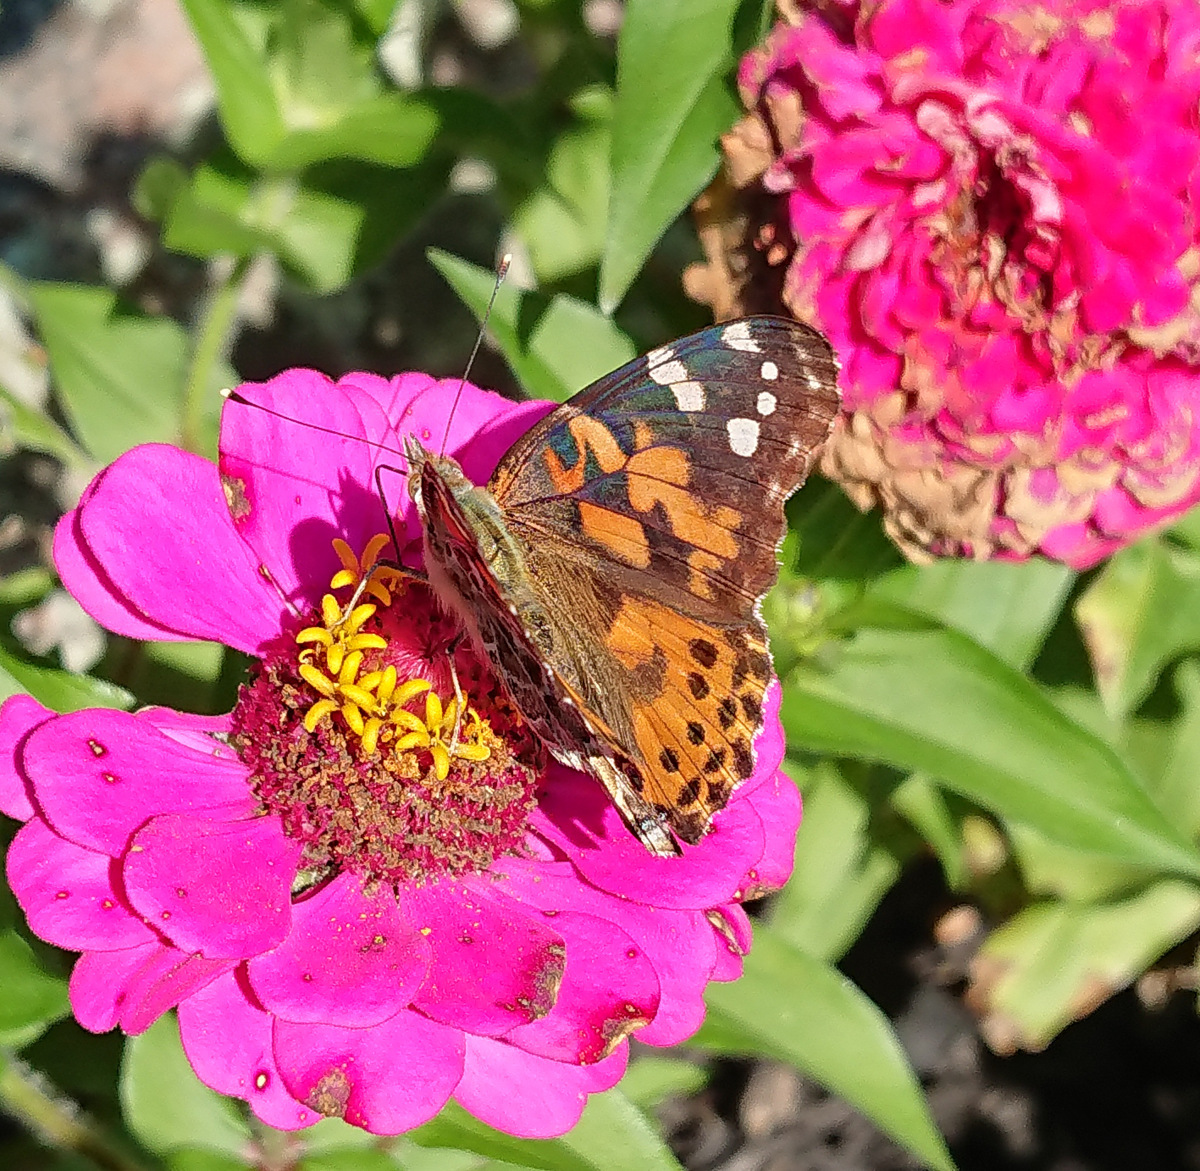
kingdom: Animalia
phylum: Arthropoda
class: Insecta
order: Lepidoptera
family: Nymphalidae
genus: Vanessa
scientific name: Vanessa cardui
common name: Painted lady
